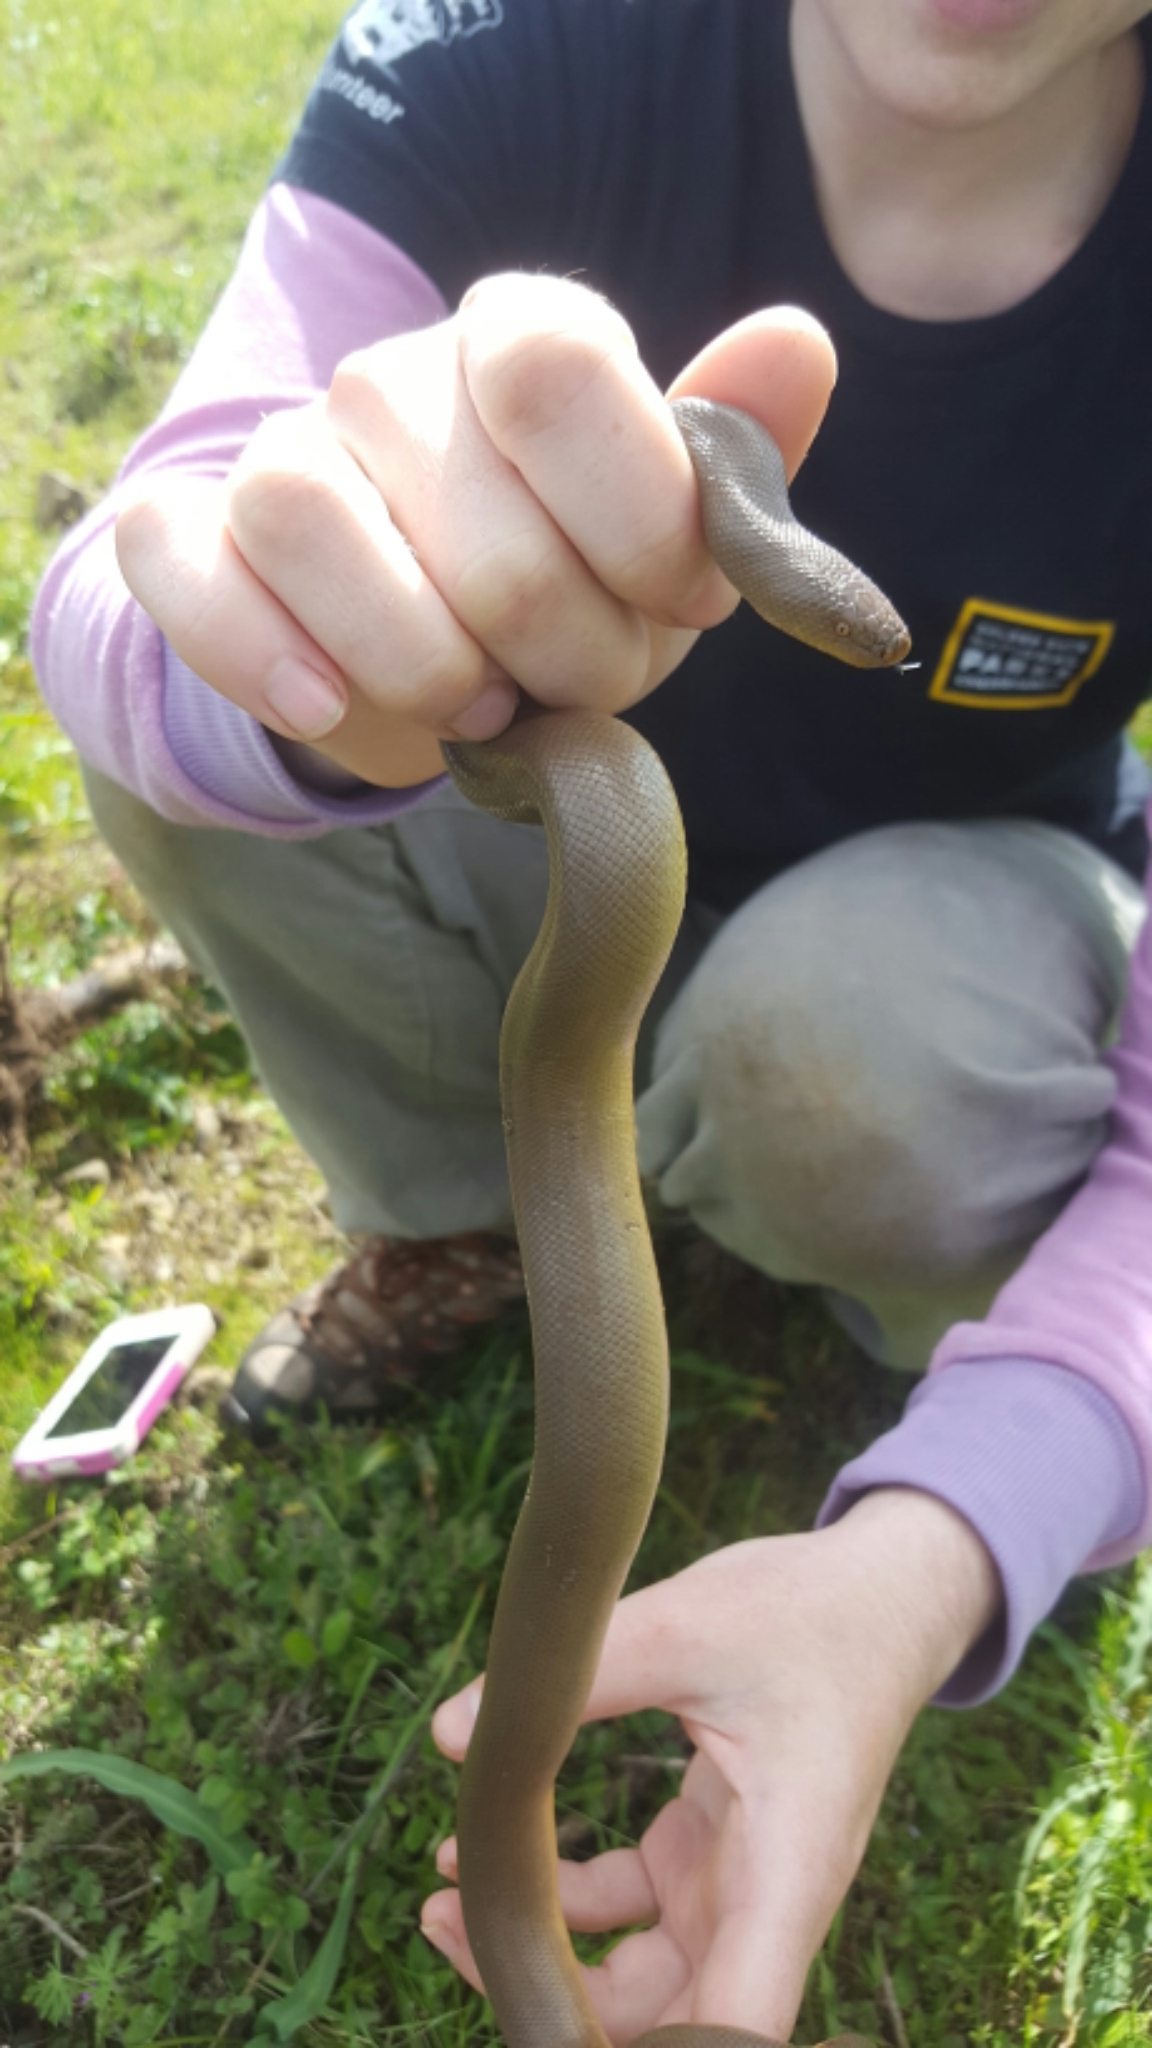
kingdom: Animalia
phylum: Chordata
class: Squamata
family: Boidae
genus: Charina
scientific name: Charina bottae
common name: Northern rubber boa
